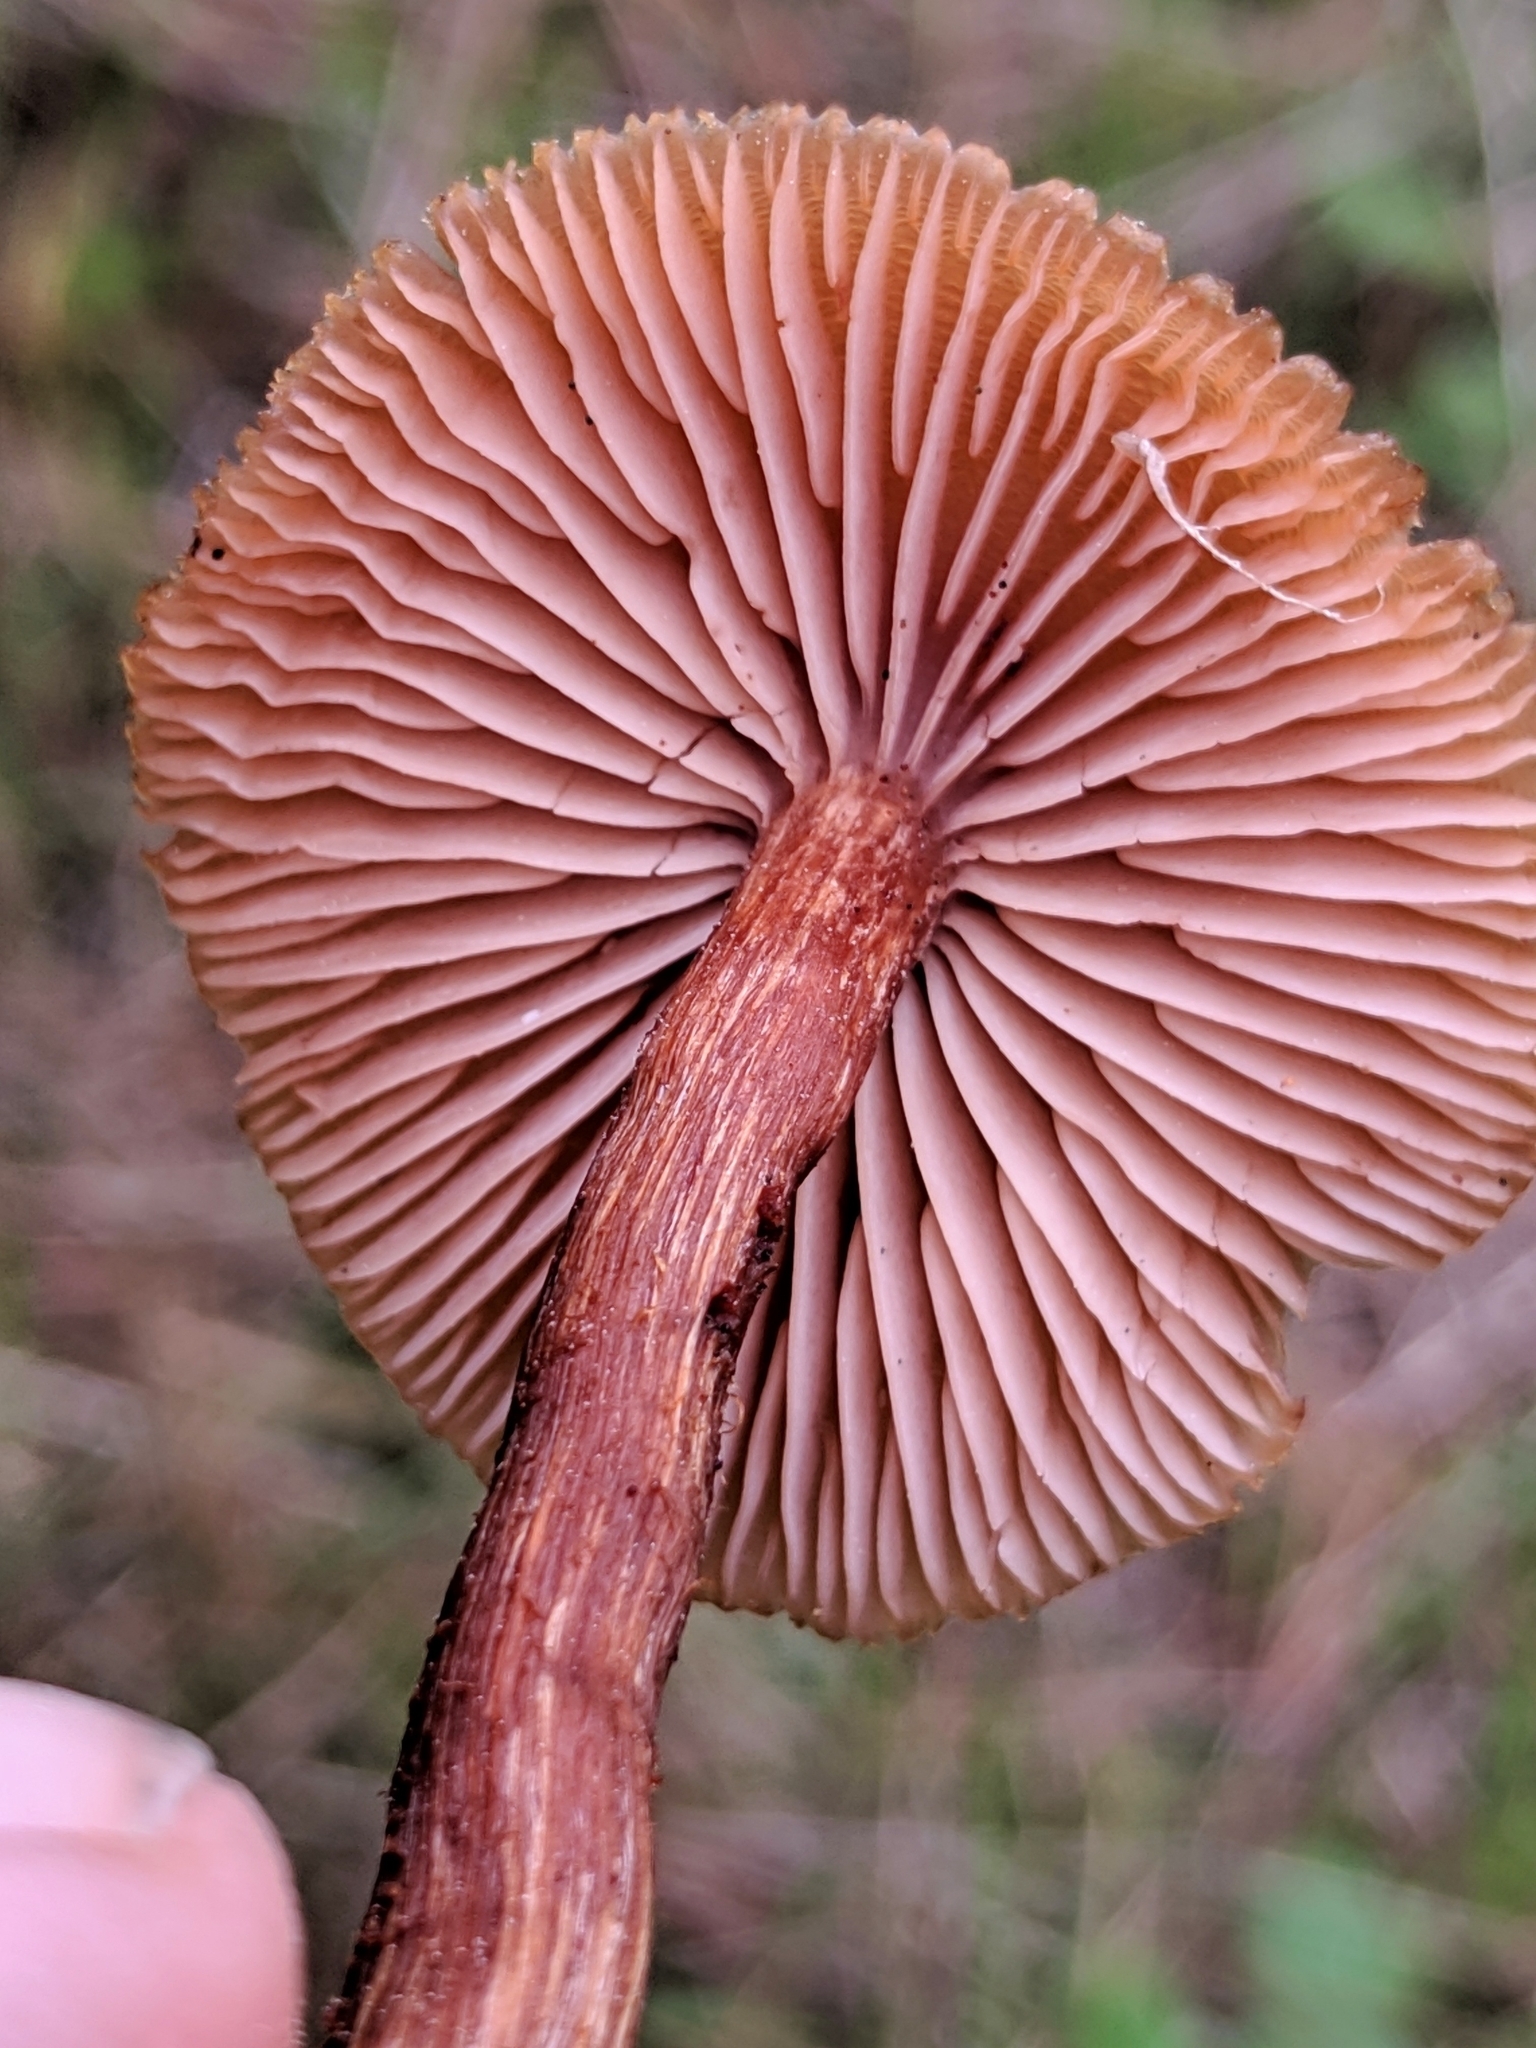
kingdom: Fungi
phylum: Basidiomycota
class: Agaricomycetes
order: Agaricales
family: Hydnangiaceae
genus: Laccaria
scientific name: Laccaria laccata
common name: Deceiver
